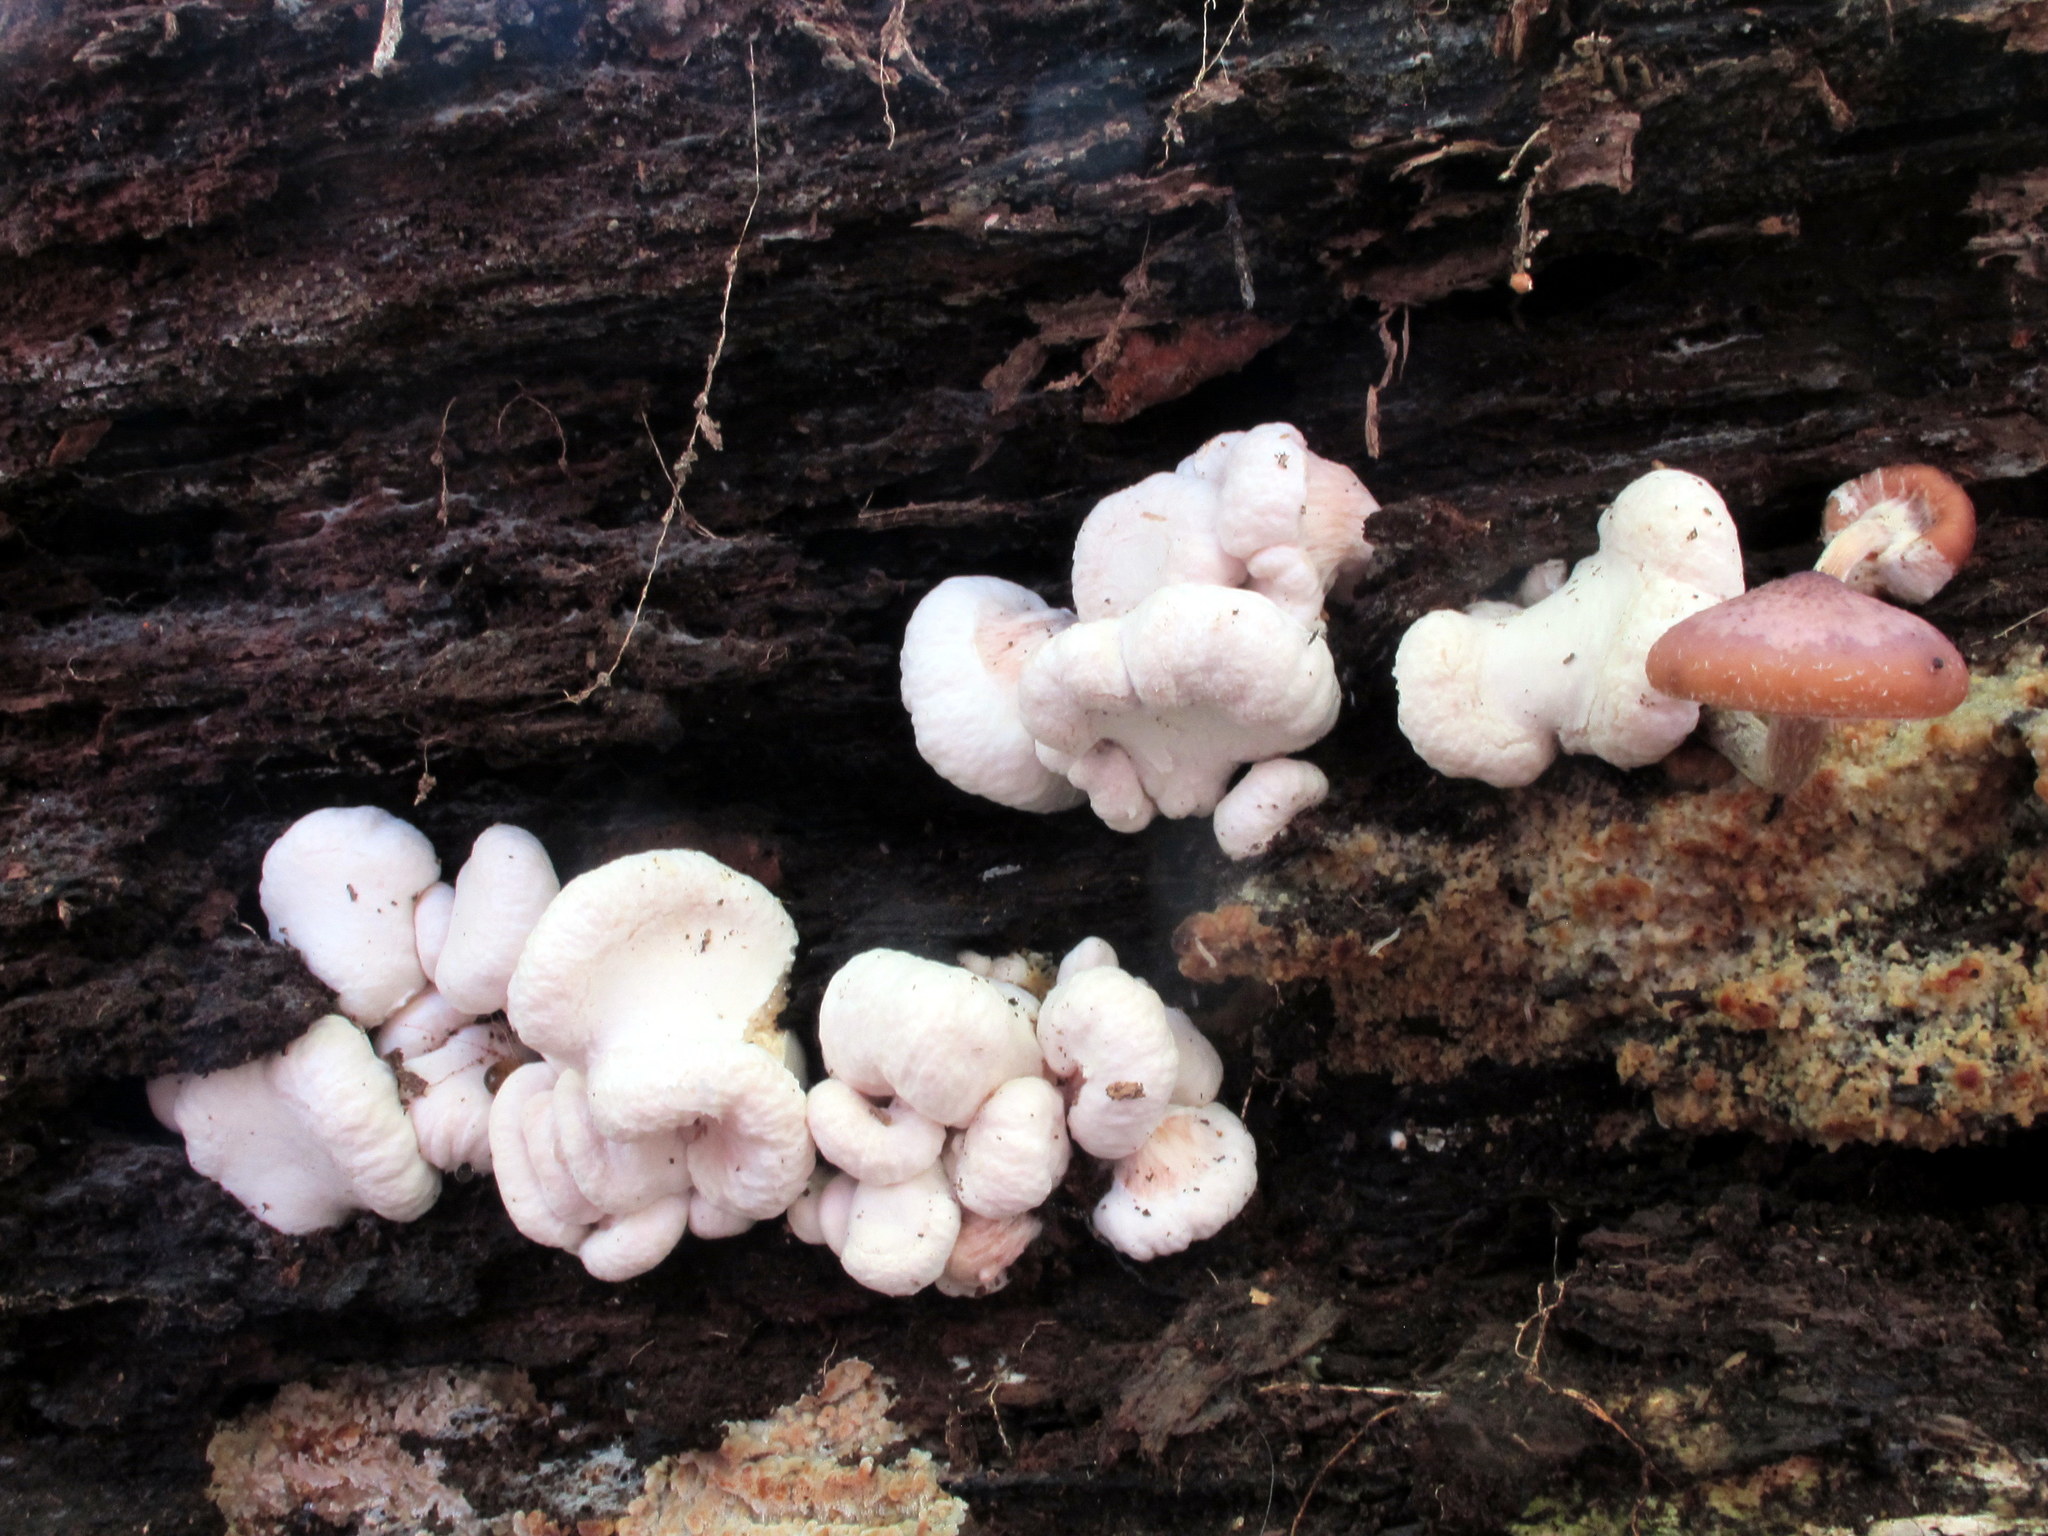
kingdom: Fungi
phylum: Basidiomycota
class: Agaricomycetes
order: Agaricales
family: Entolomataceae
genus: Entoloma
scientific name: Entoloma abortivum
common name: Aborted entoloma
